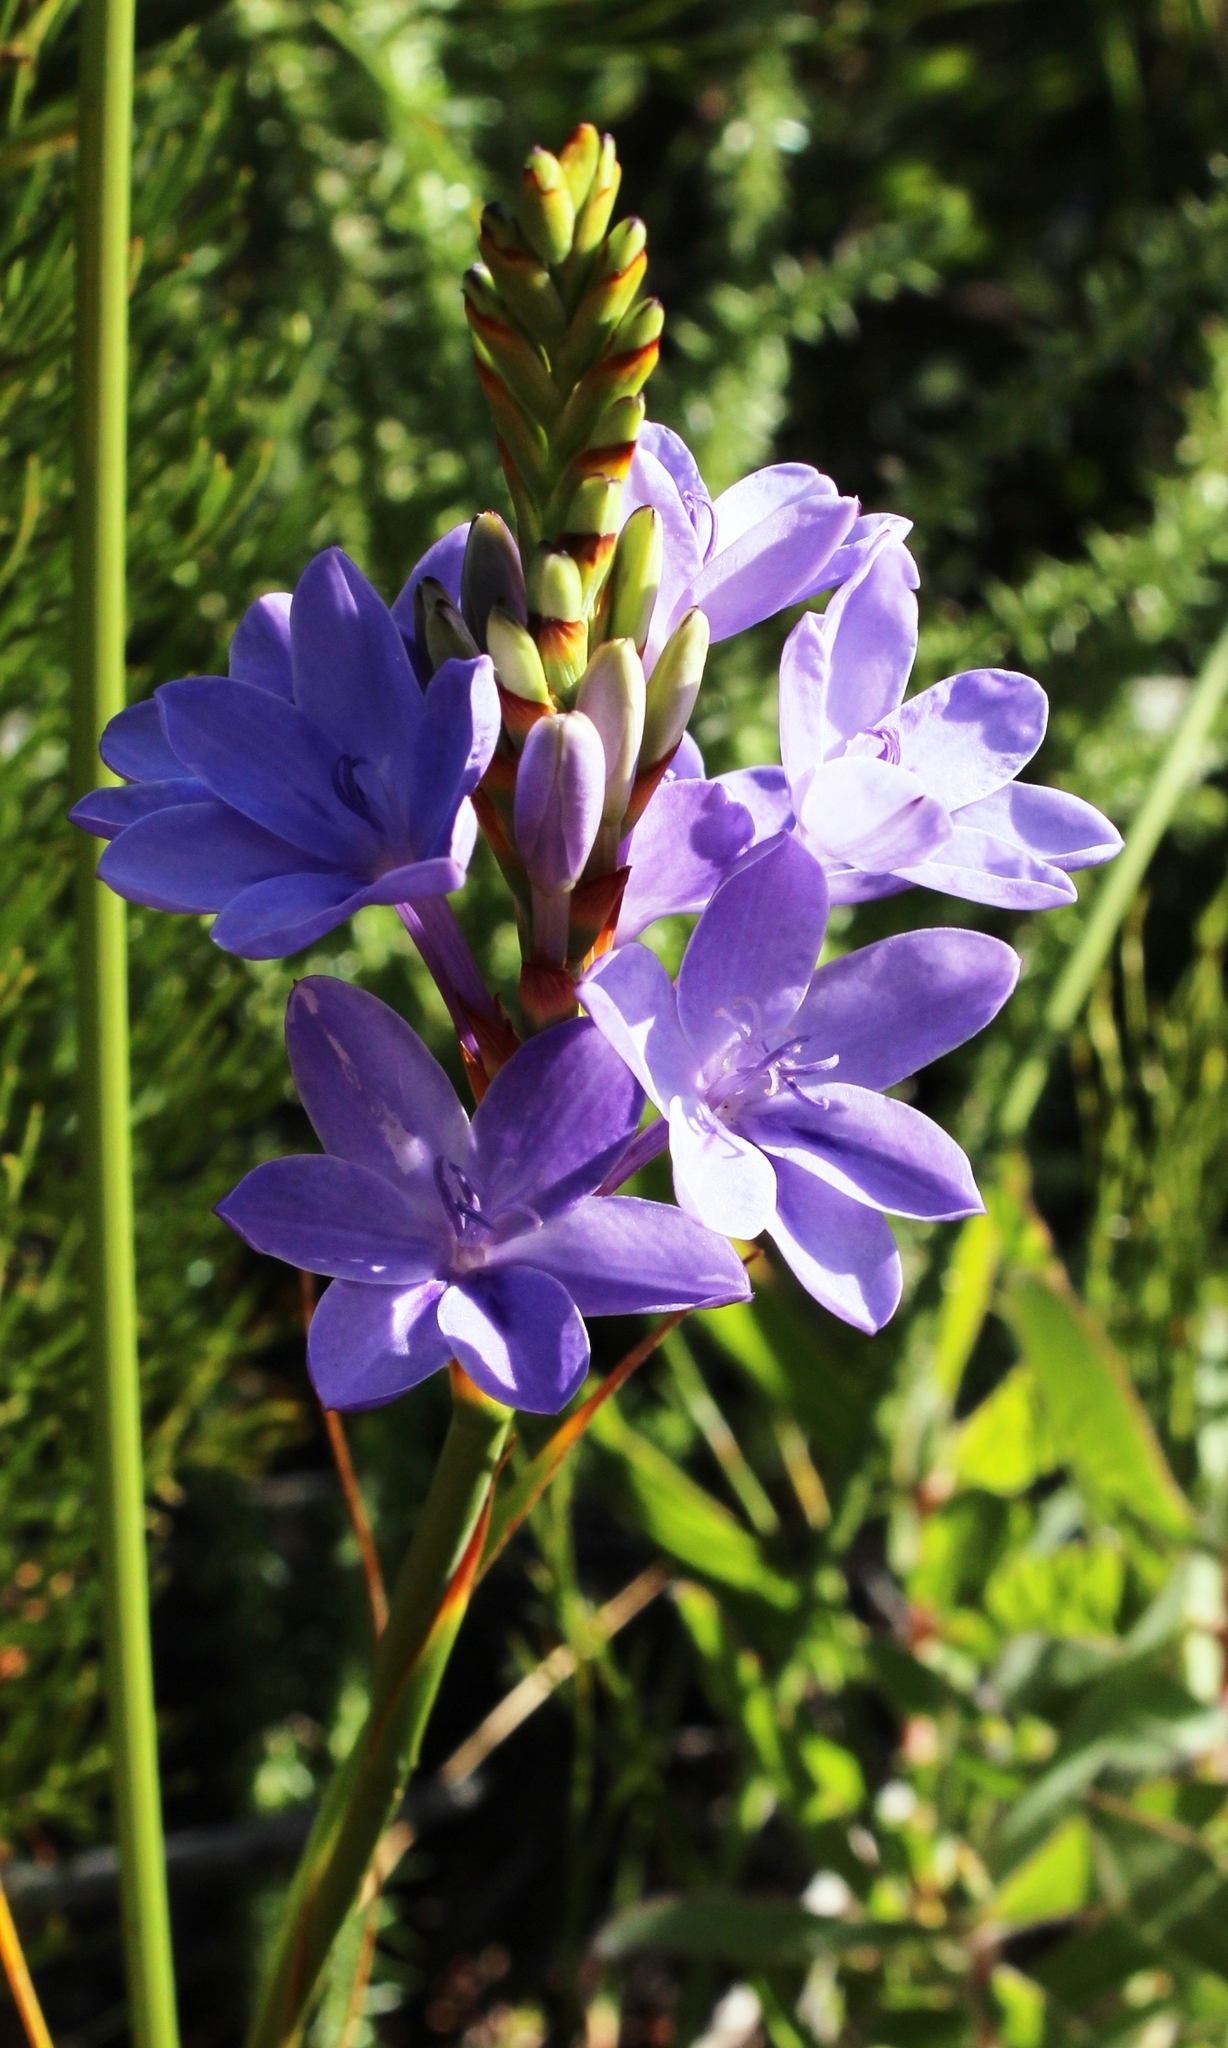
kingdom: Plantae
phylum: Tracheophyta
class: Liliopsida
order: Asparagales
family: Iridaceae
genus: Thereianthus
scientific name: Thereianthus ixioides
